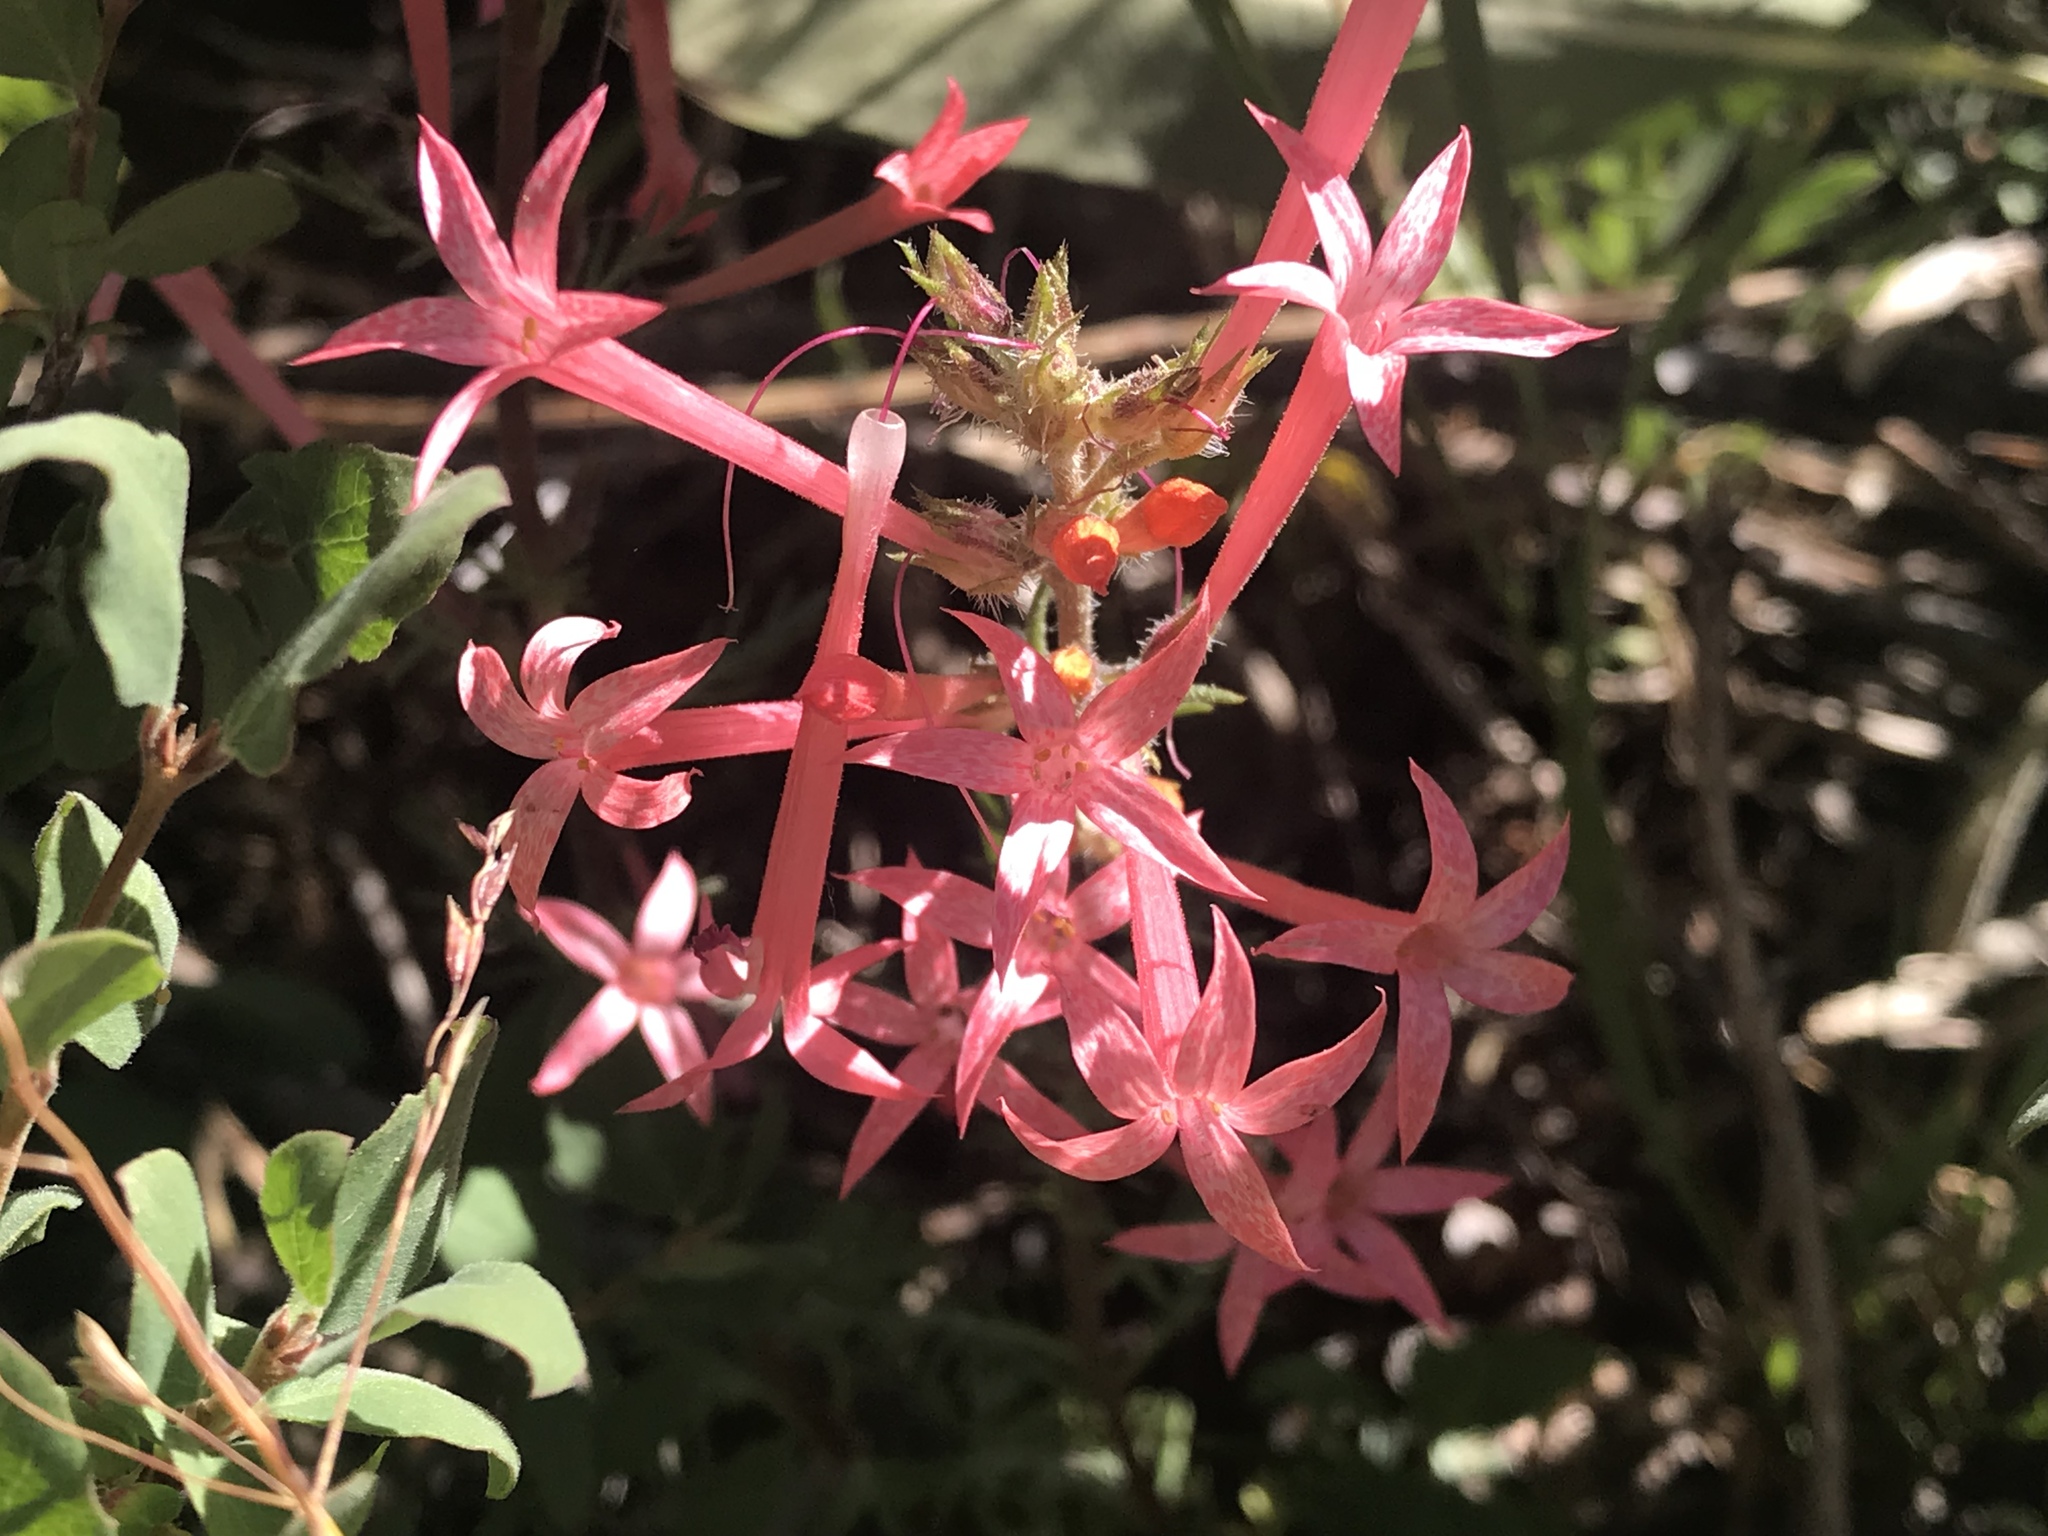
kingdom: Plantae
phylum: Tracheophyta
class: Magnoliopsida
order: Ericales
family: Polemoniaceae
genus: Ipomopsis
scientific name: Ipomopsis tenuituba
